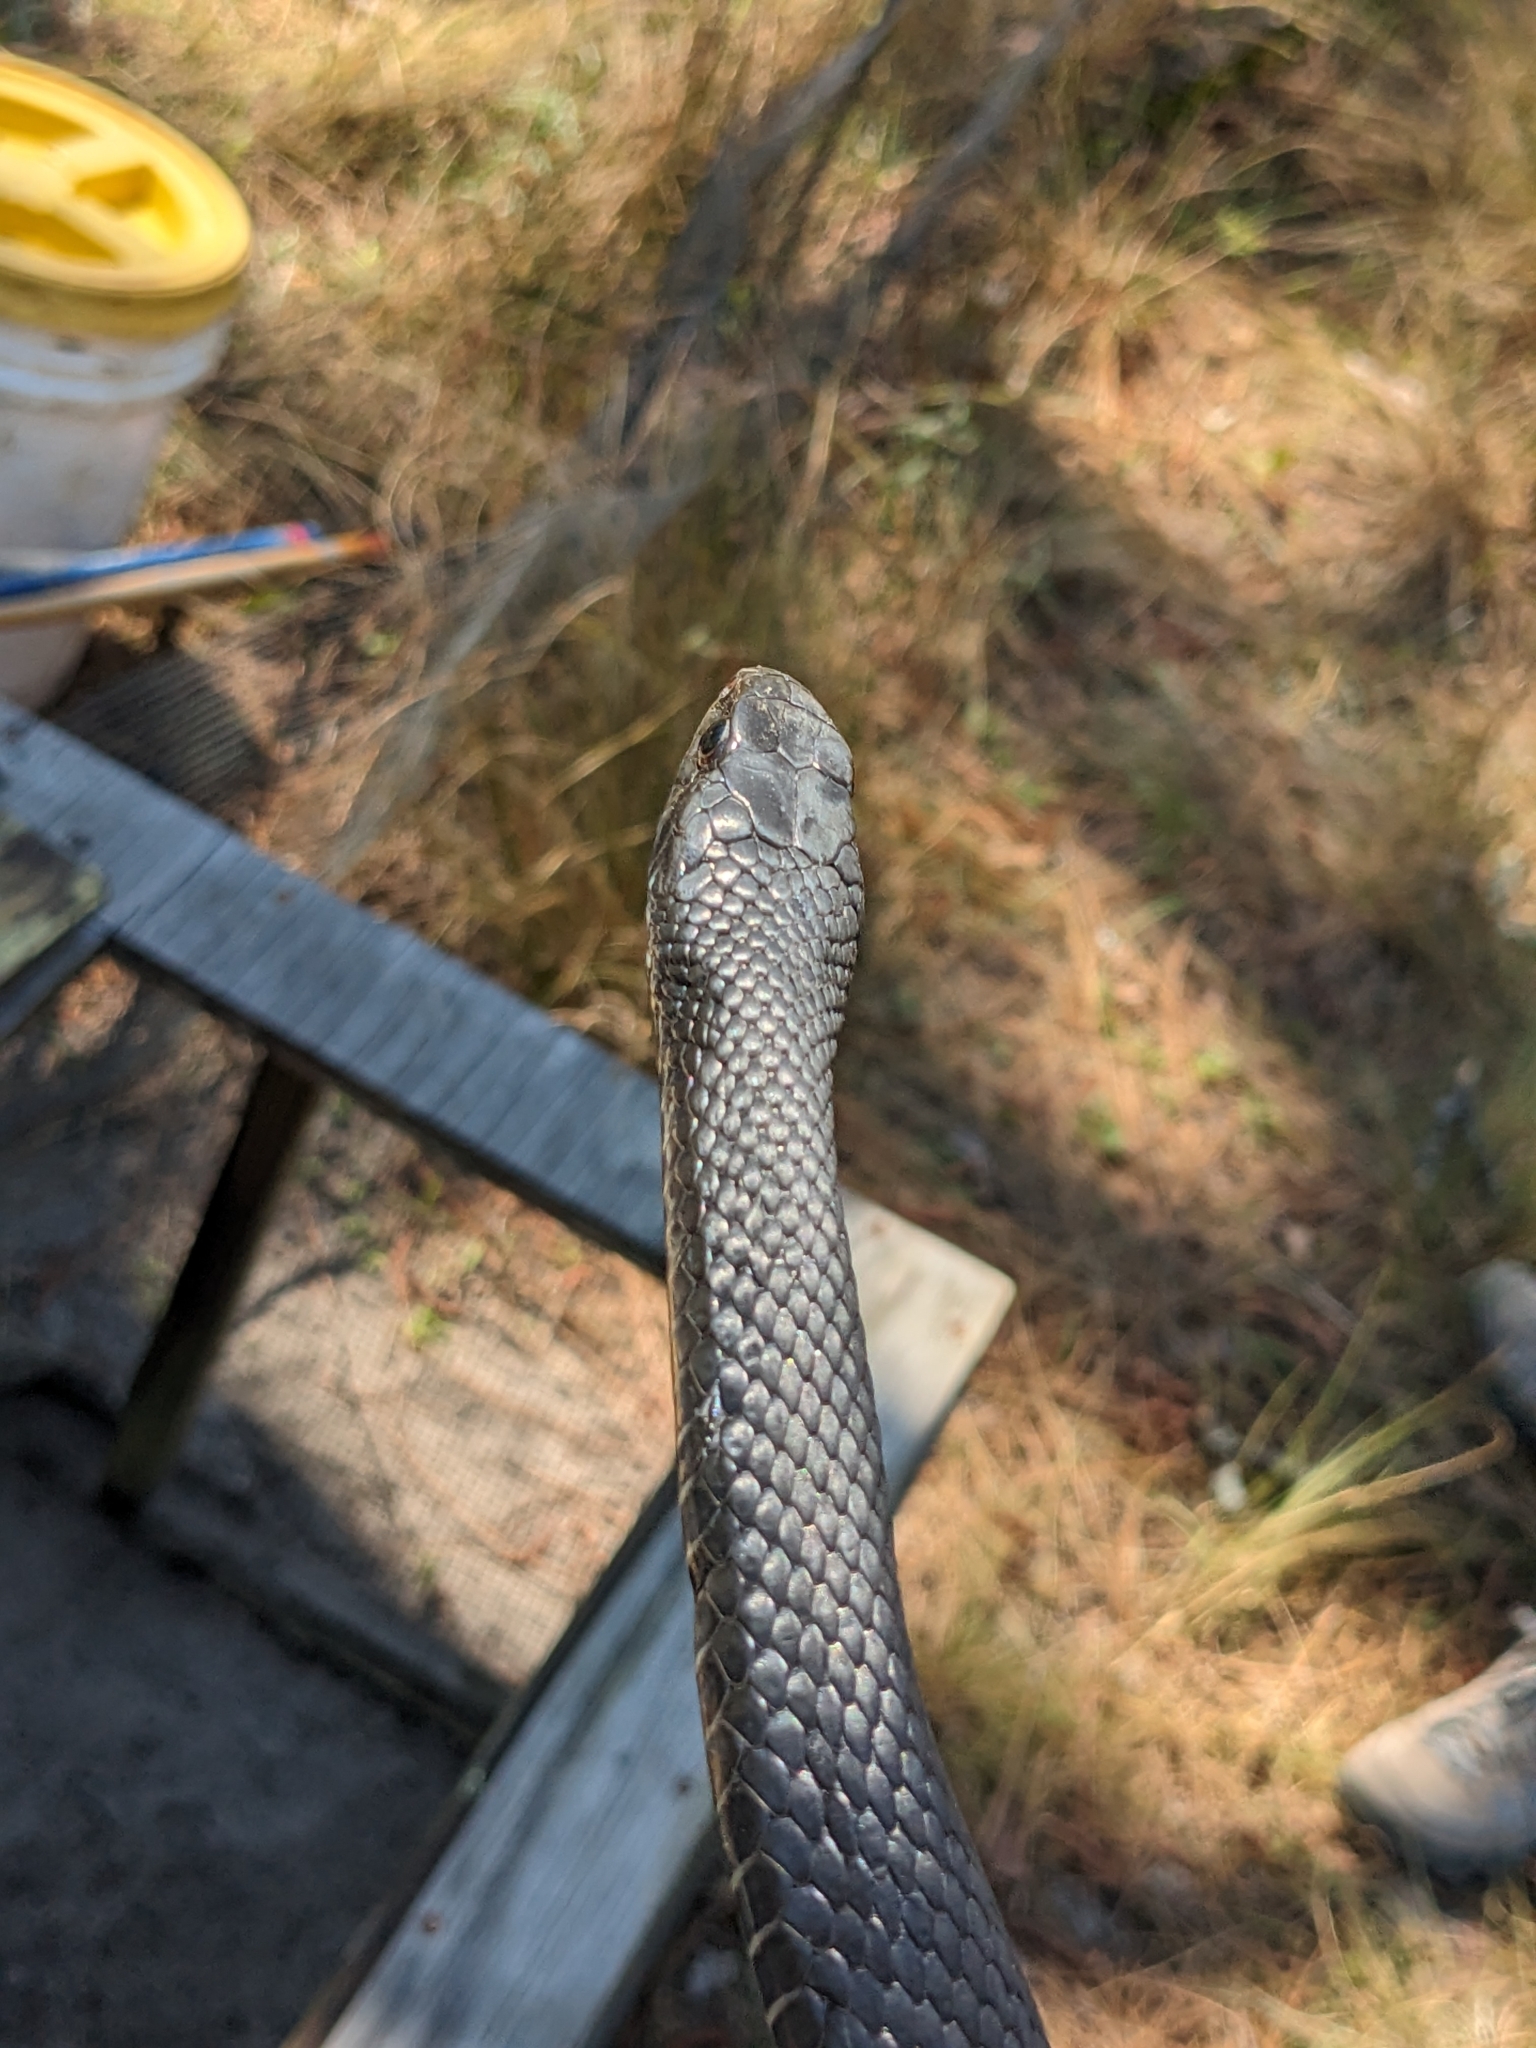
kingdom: Animalia
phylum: Chordata
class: Squamata
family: Colubridae
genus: Coluber
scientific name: Coluber constrictor
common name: Eastern racer
